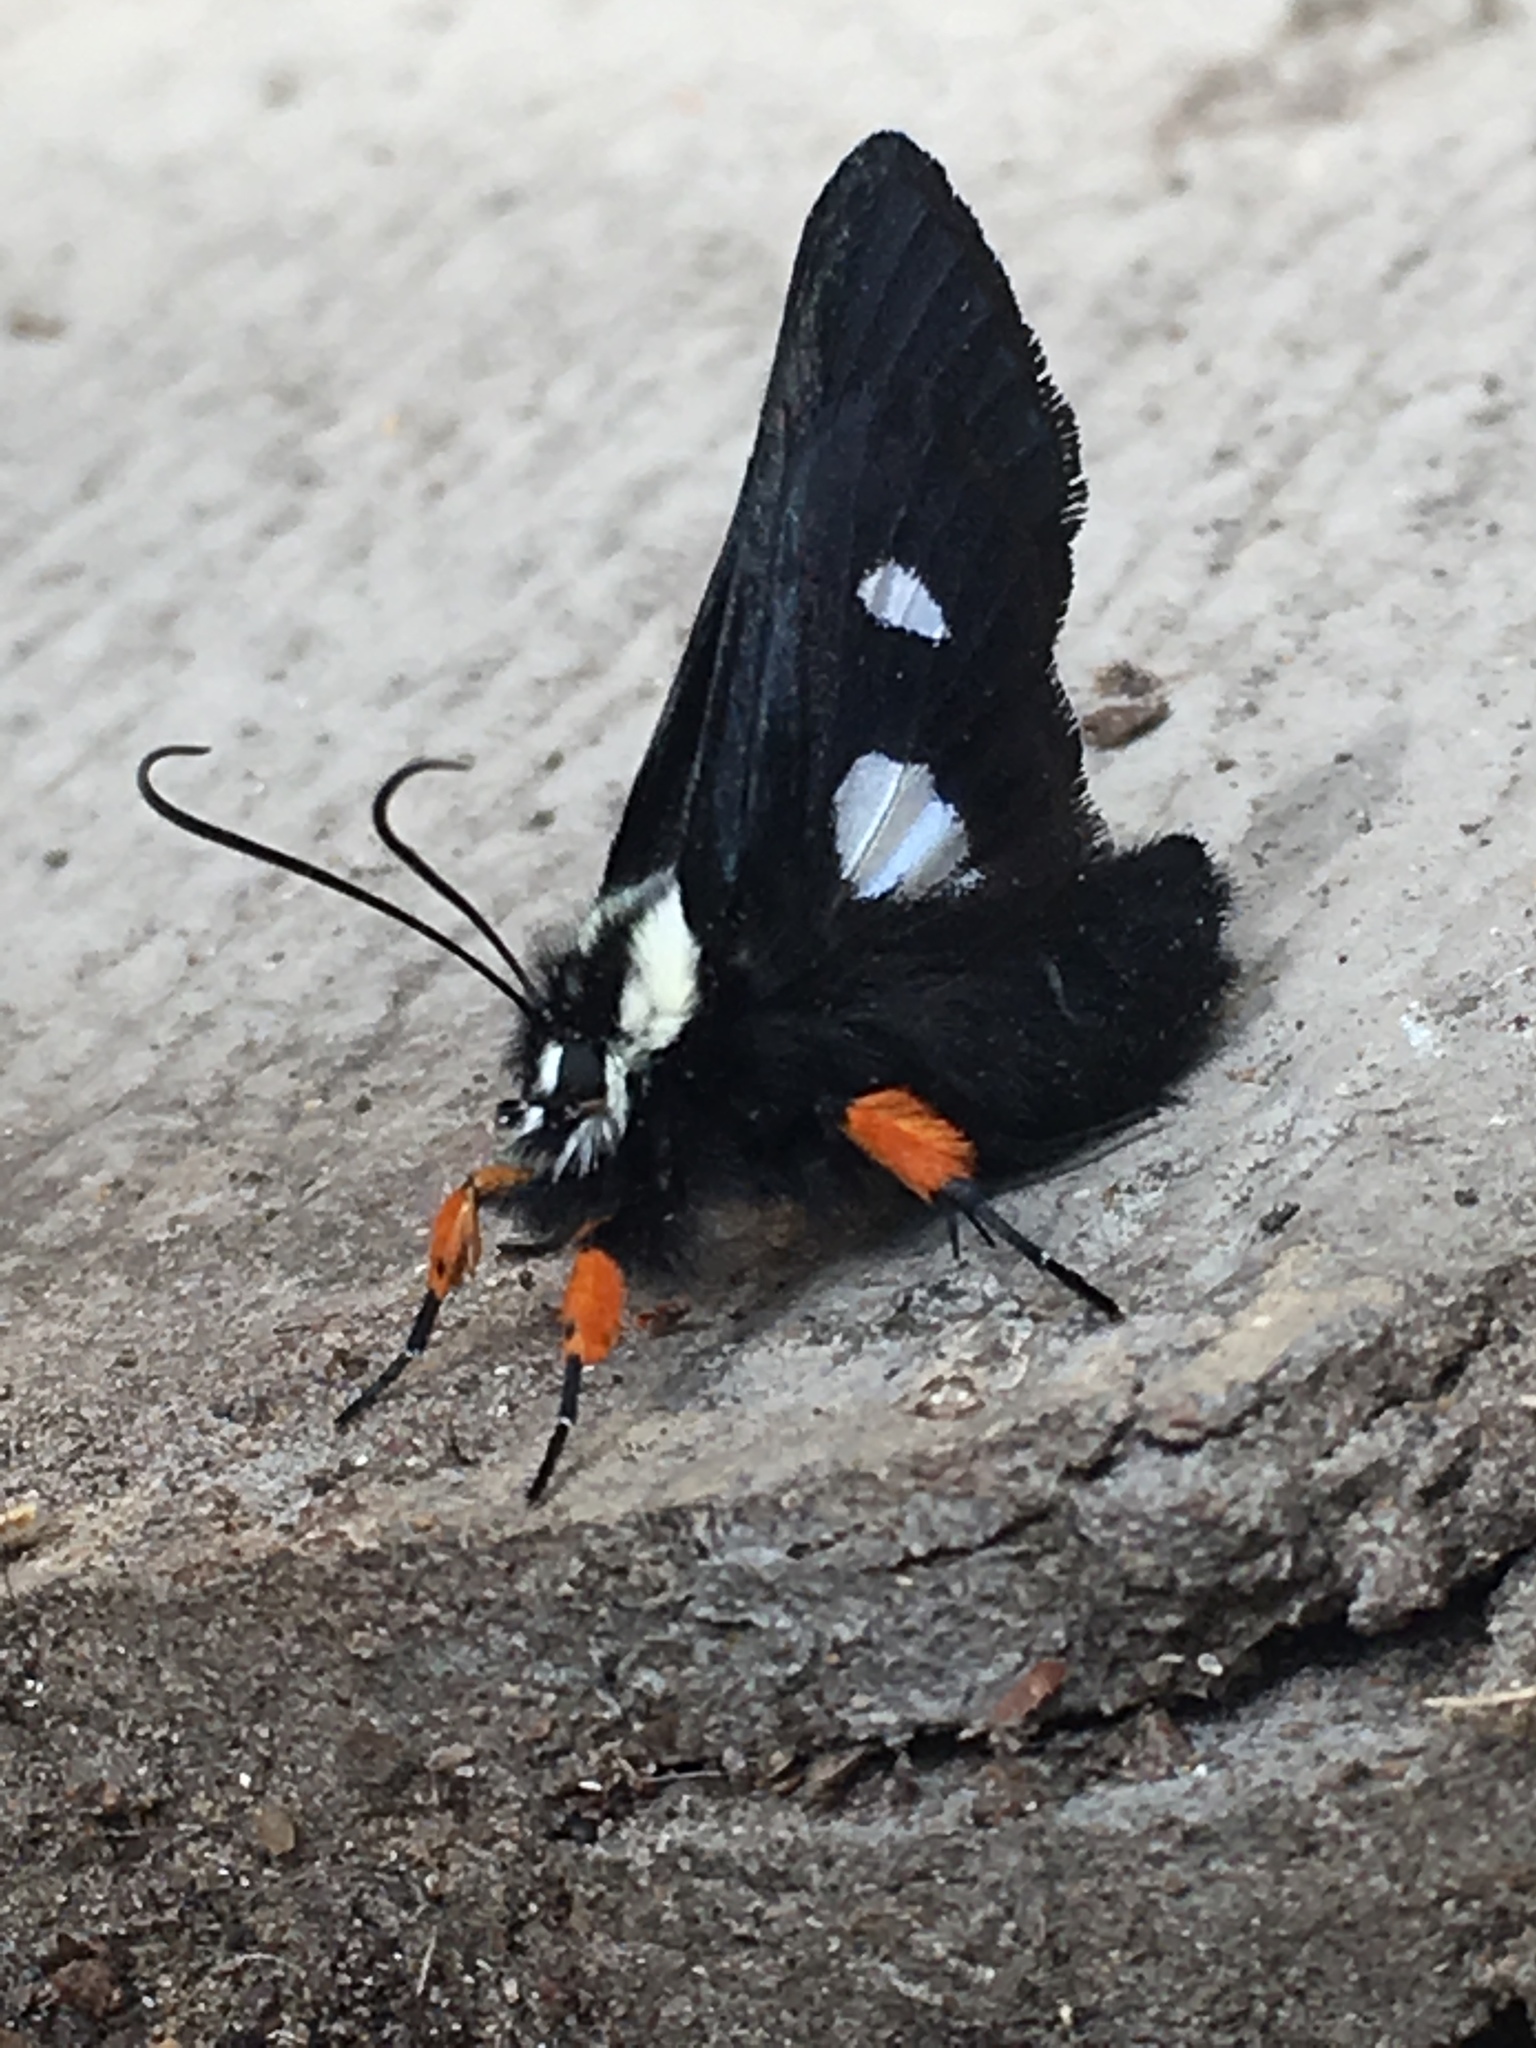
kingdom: Animalia
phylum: Arthropoda
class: Insecta
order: Lepidoptera
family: Noctuidae
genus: Alypia
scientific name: Alypia octomaculata
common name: Eight-spotted forester
